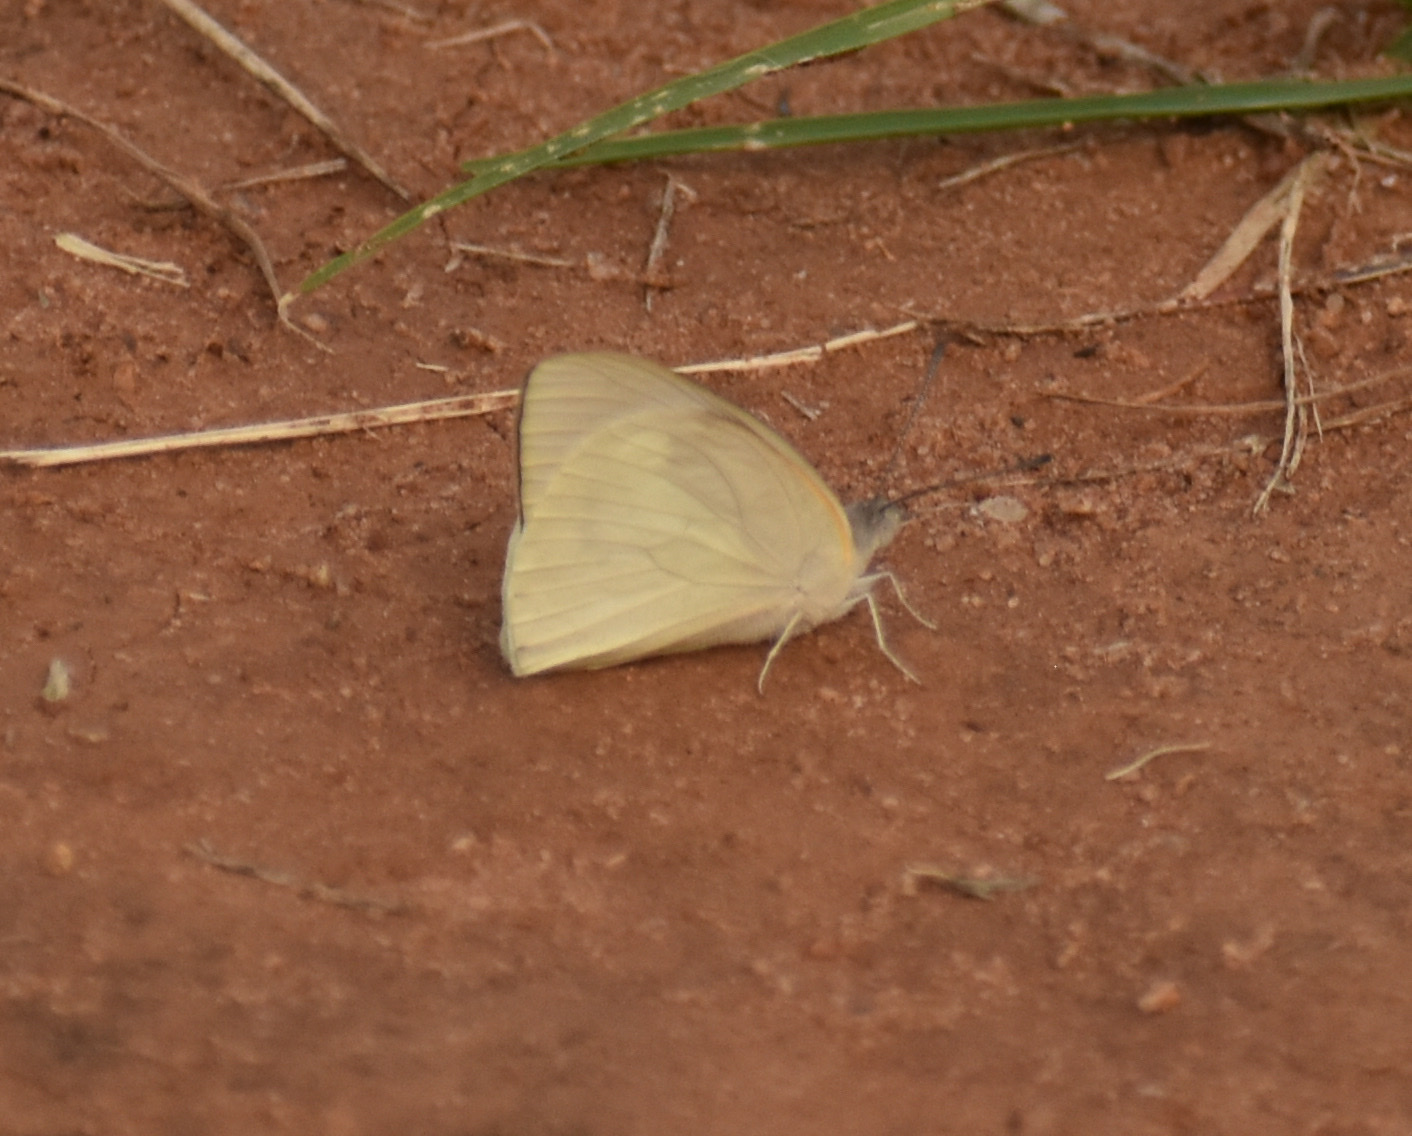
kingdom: Animalia
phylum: Arthropoda
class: Insecta
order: Lepidoptera
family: Pieridae
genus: Colotis
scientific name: Colotis eris
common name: Banded gold tip
